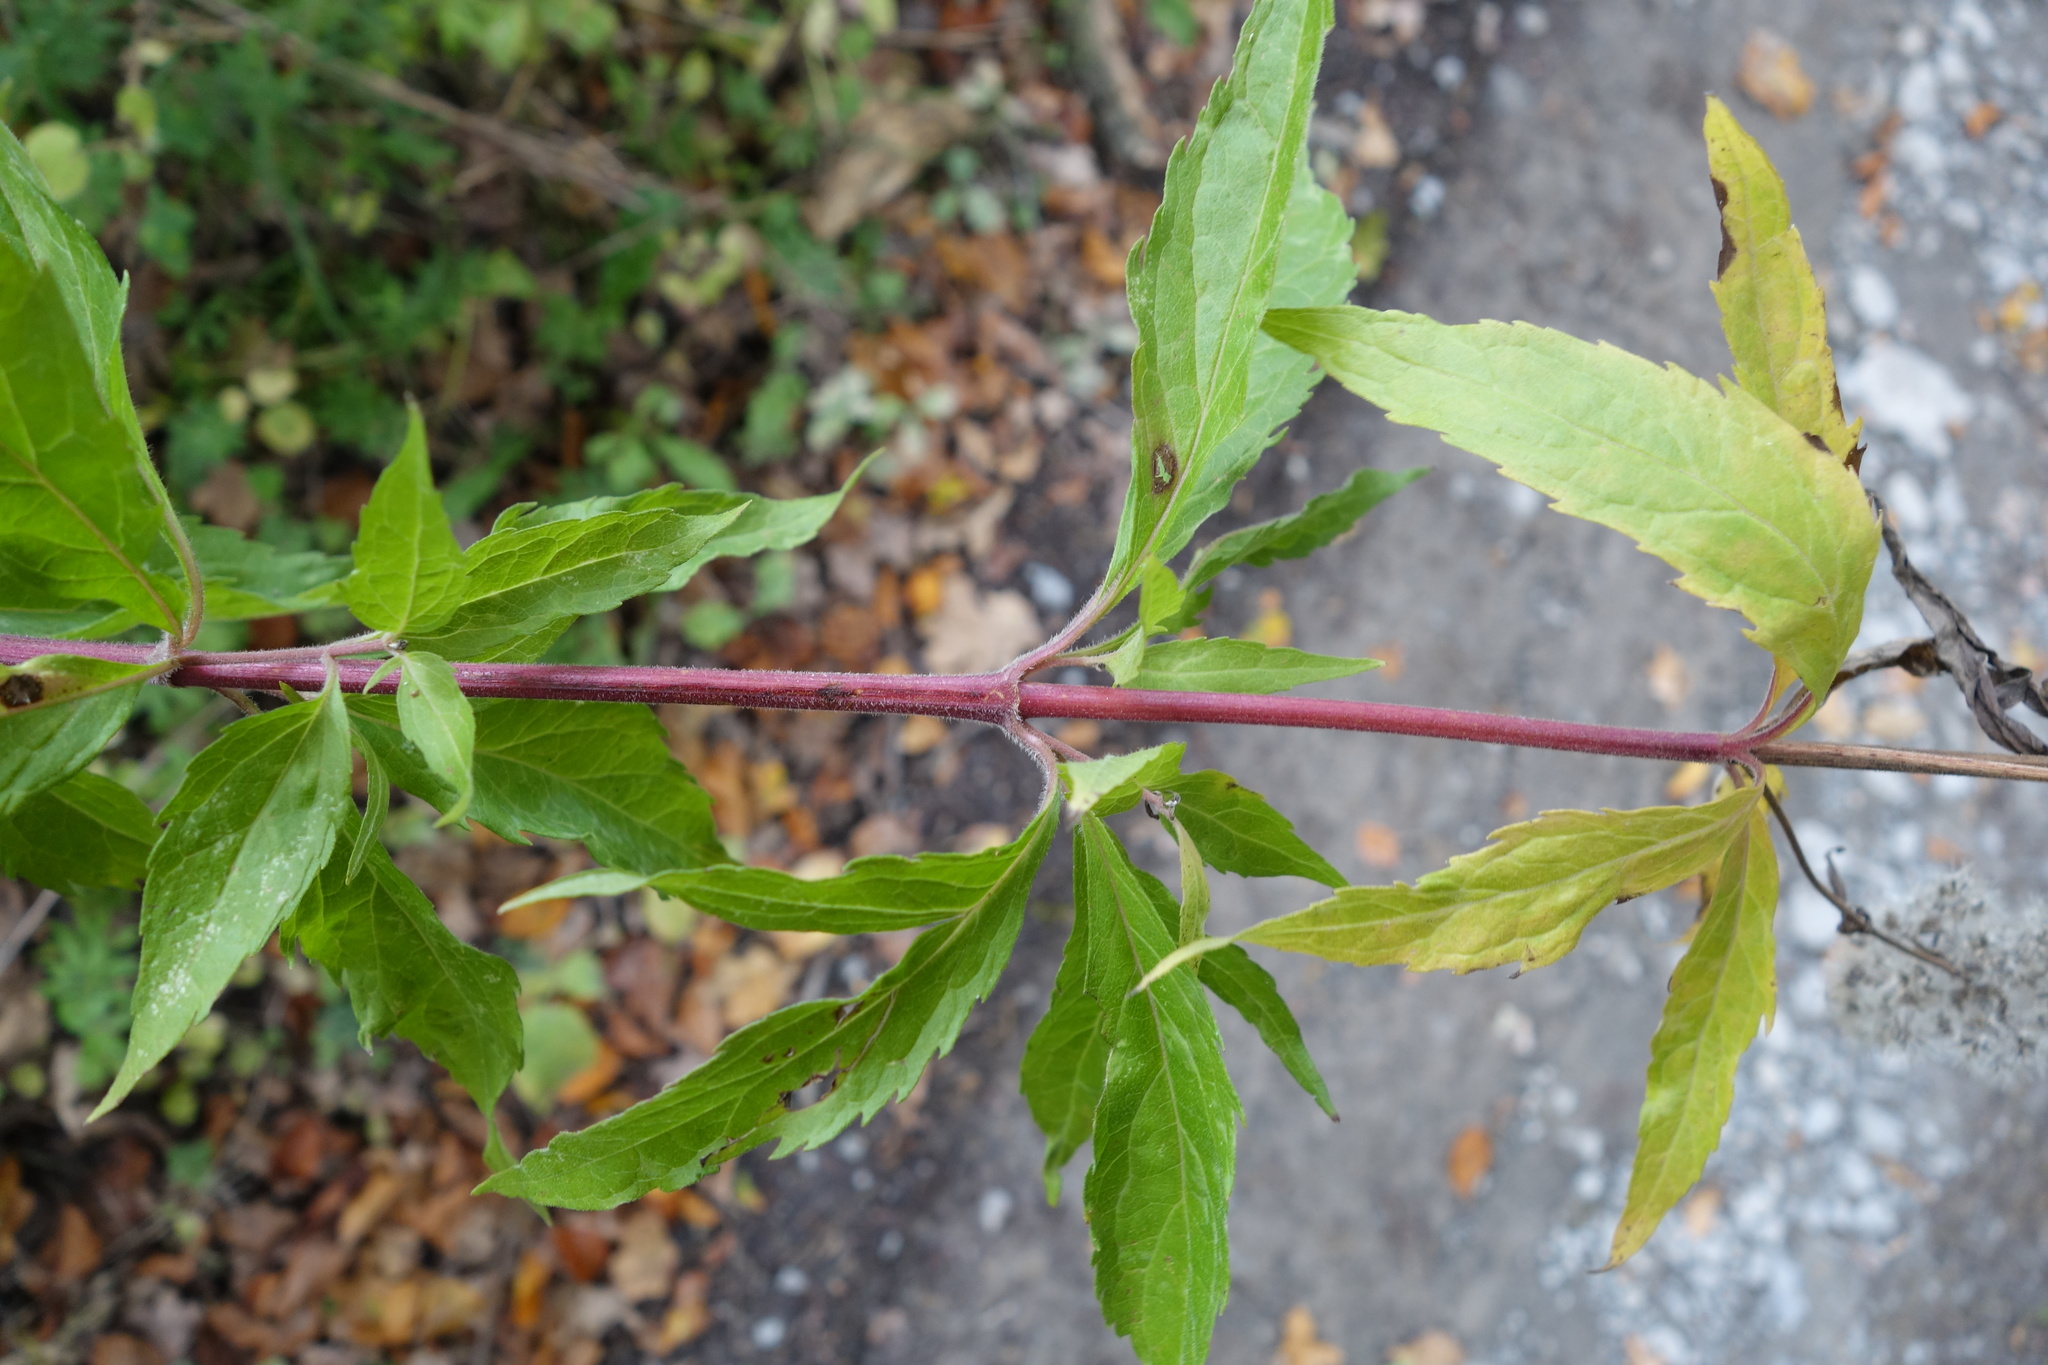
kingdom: Plantae
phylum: Tracheophyta
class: Magnoliopsida
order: Asterales
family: Asteraceae
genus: Eupatorium
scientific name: Eupatorium cannabinum
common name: Hemp-agrimony
